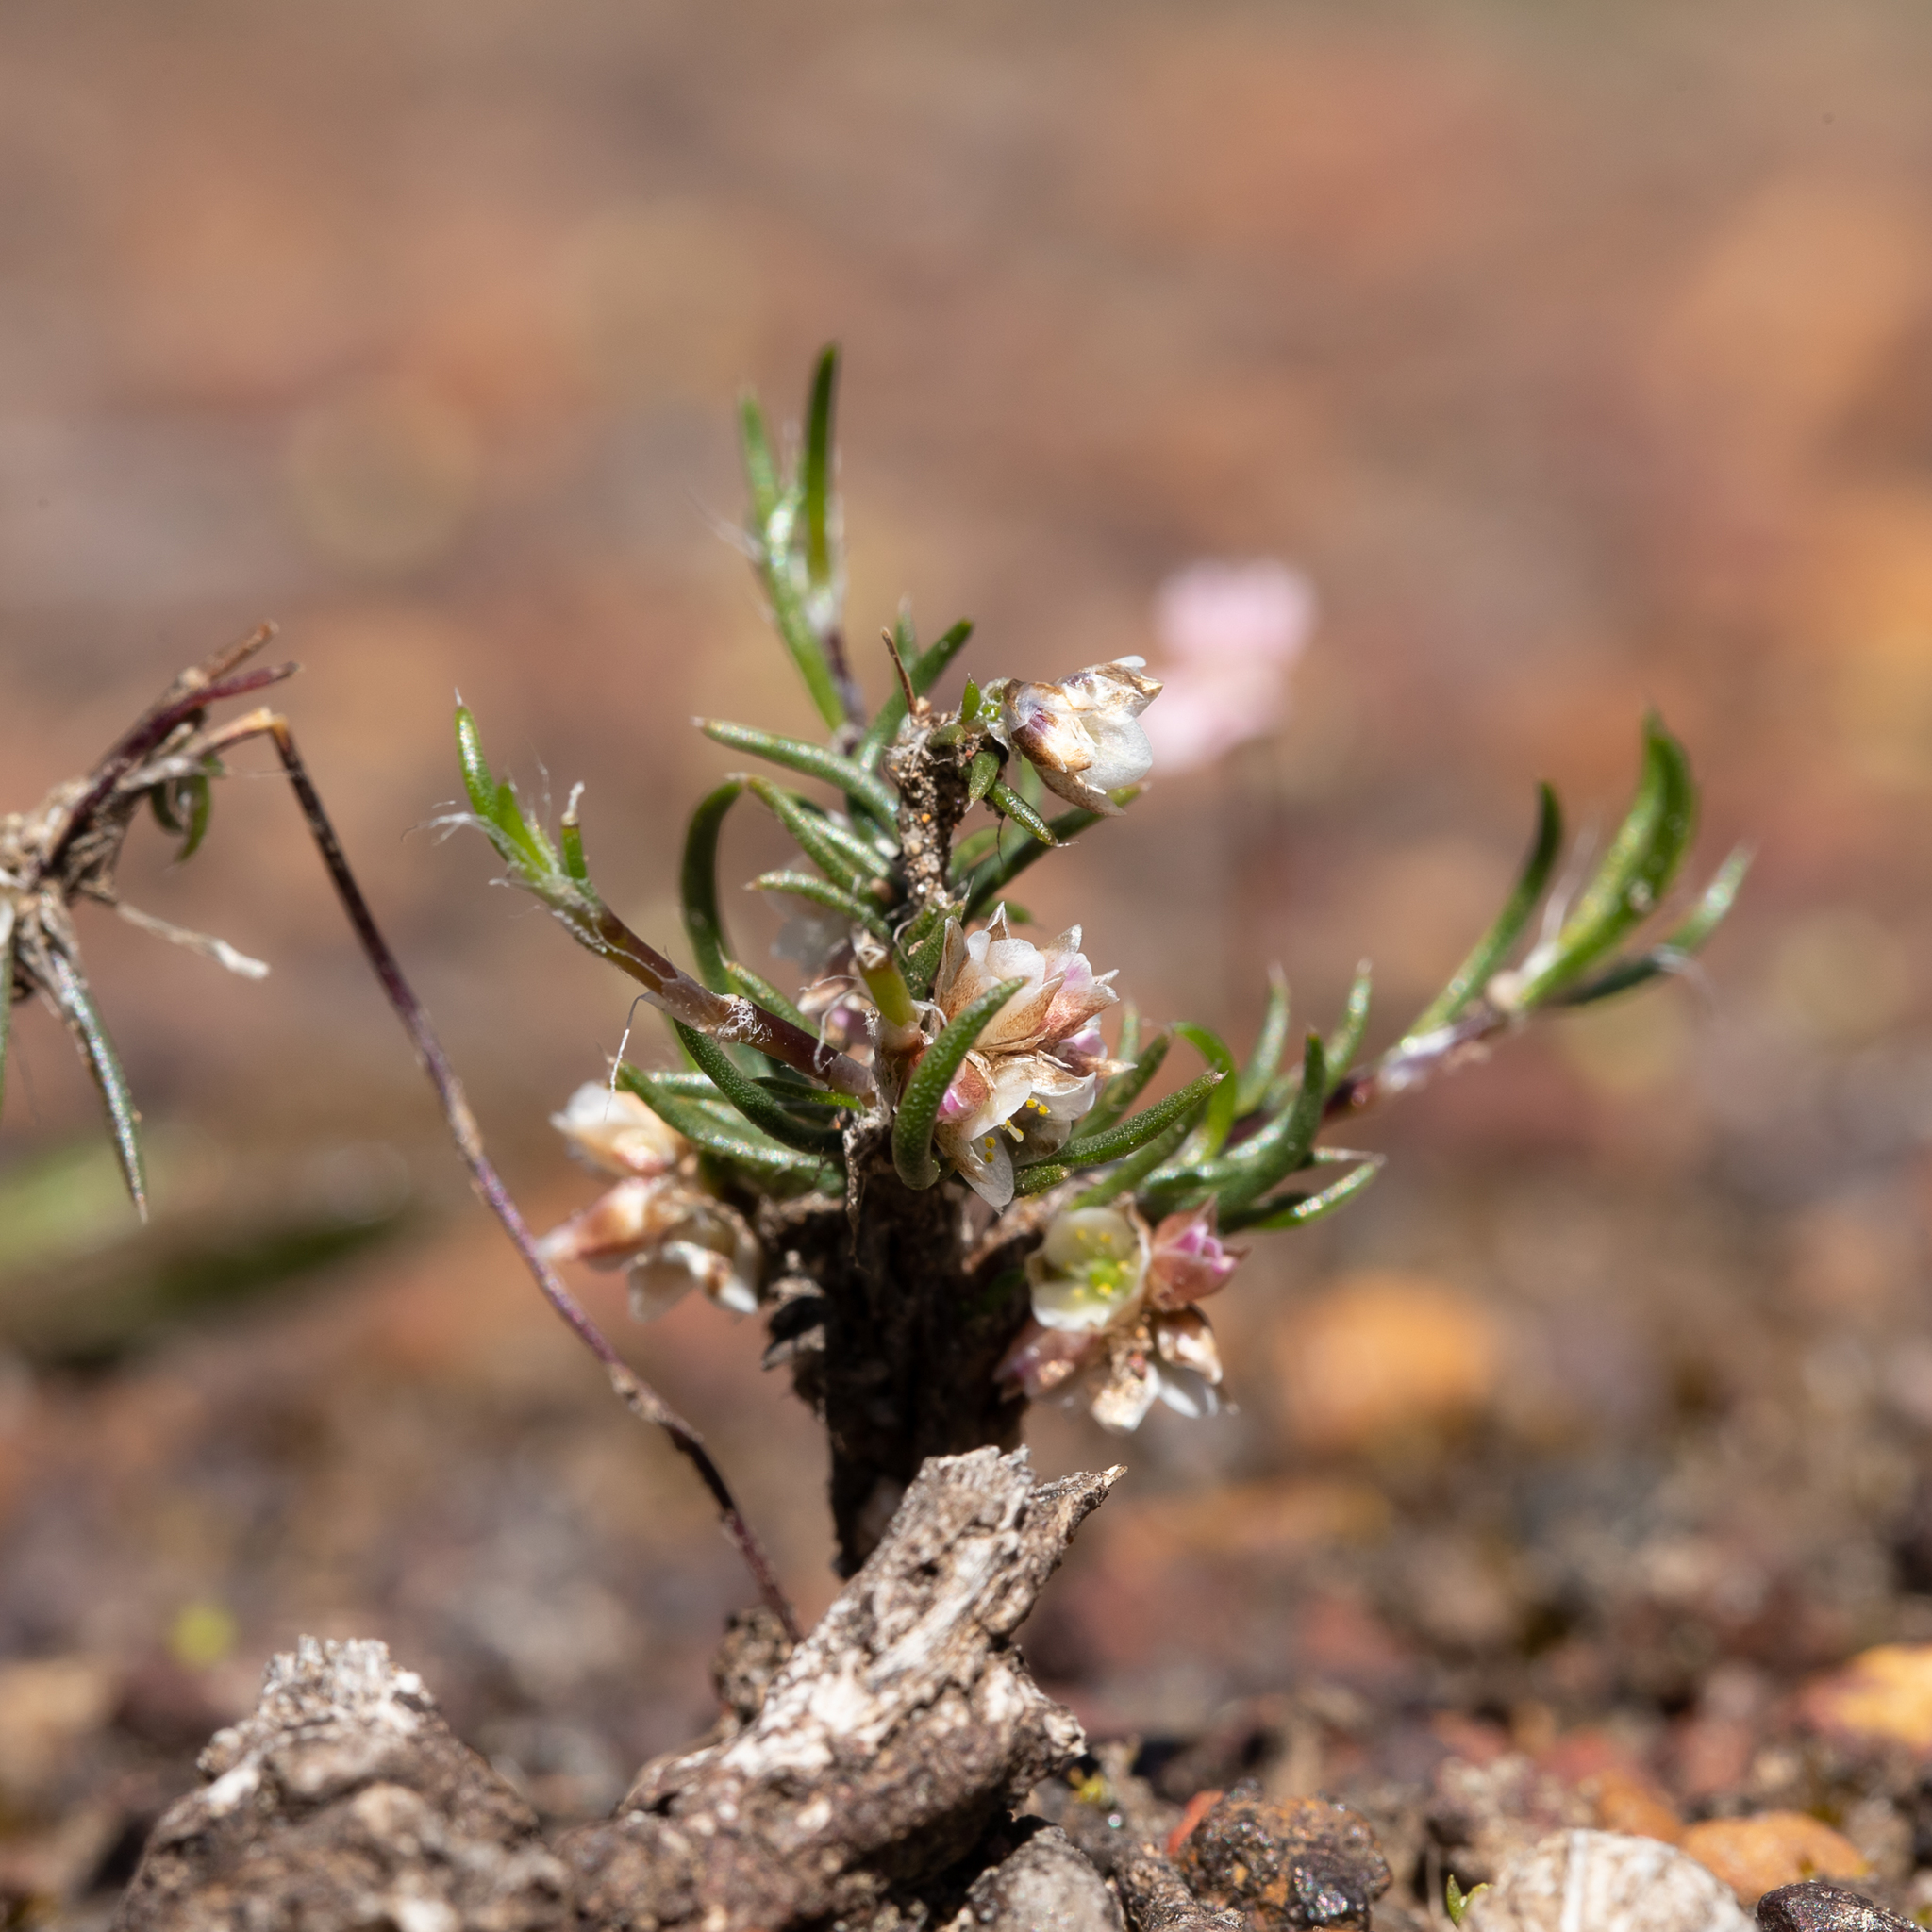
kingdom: Plantae
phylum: Tracheophyta
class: Liliopsida
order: Asparagales
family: Asparagaceae
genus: Laxmannia
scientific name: Laxmannia orientalis
